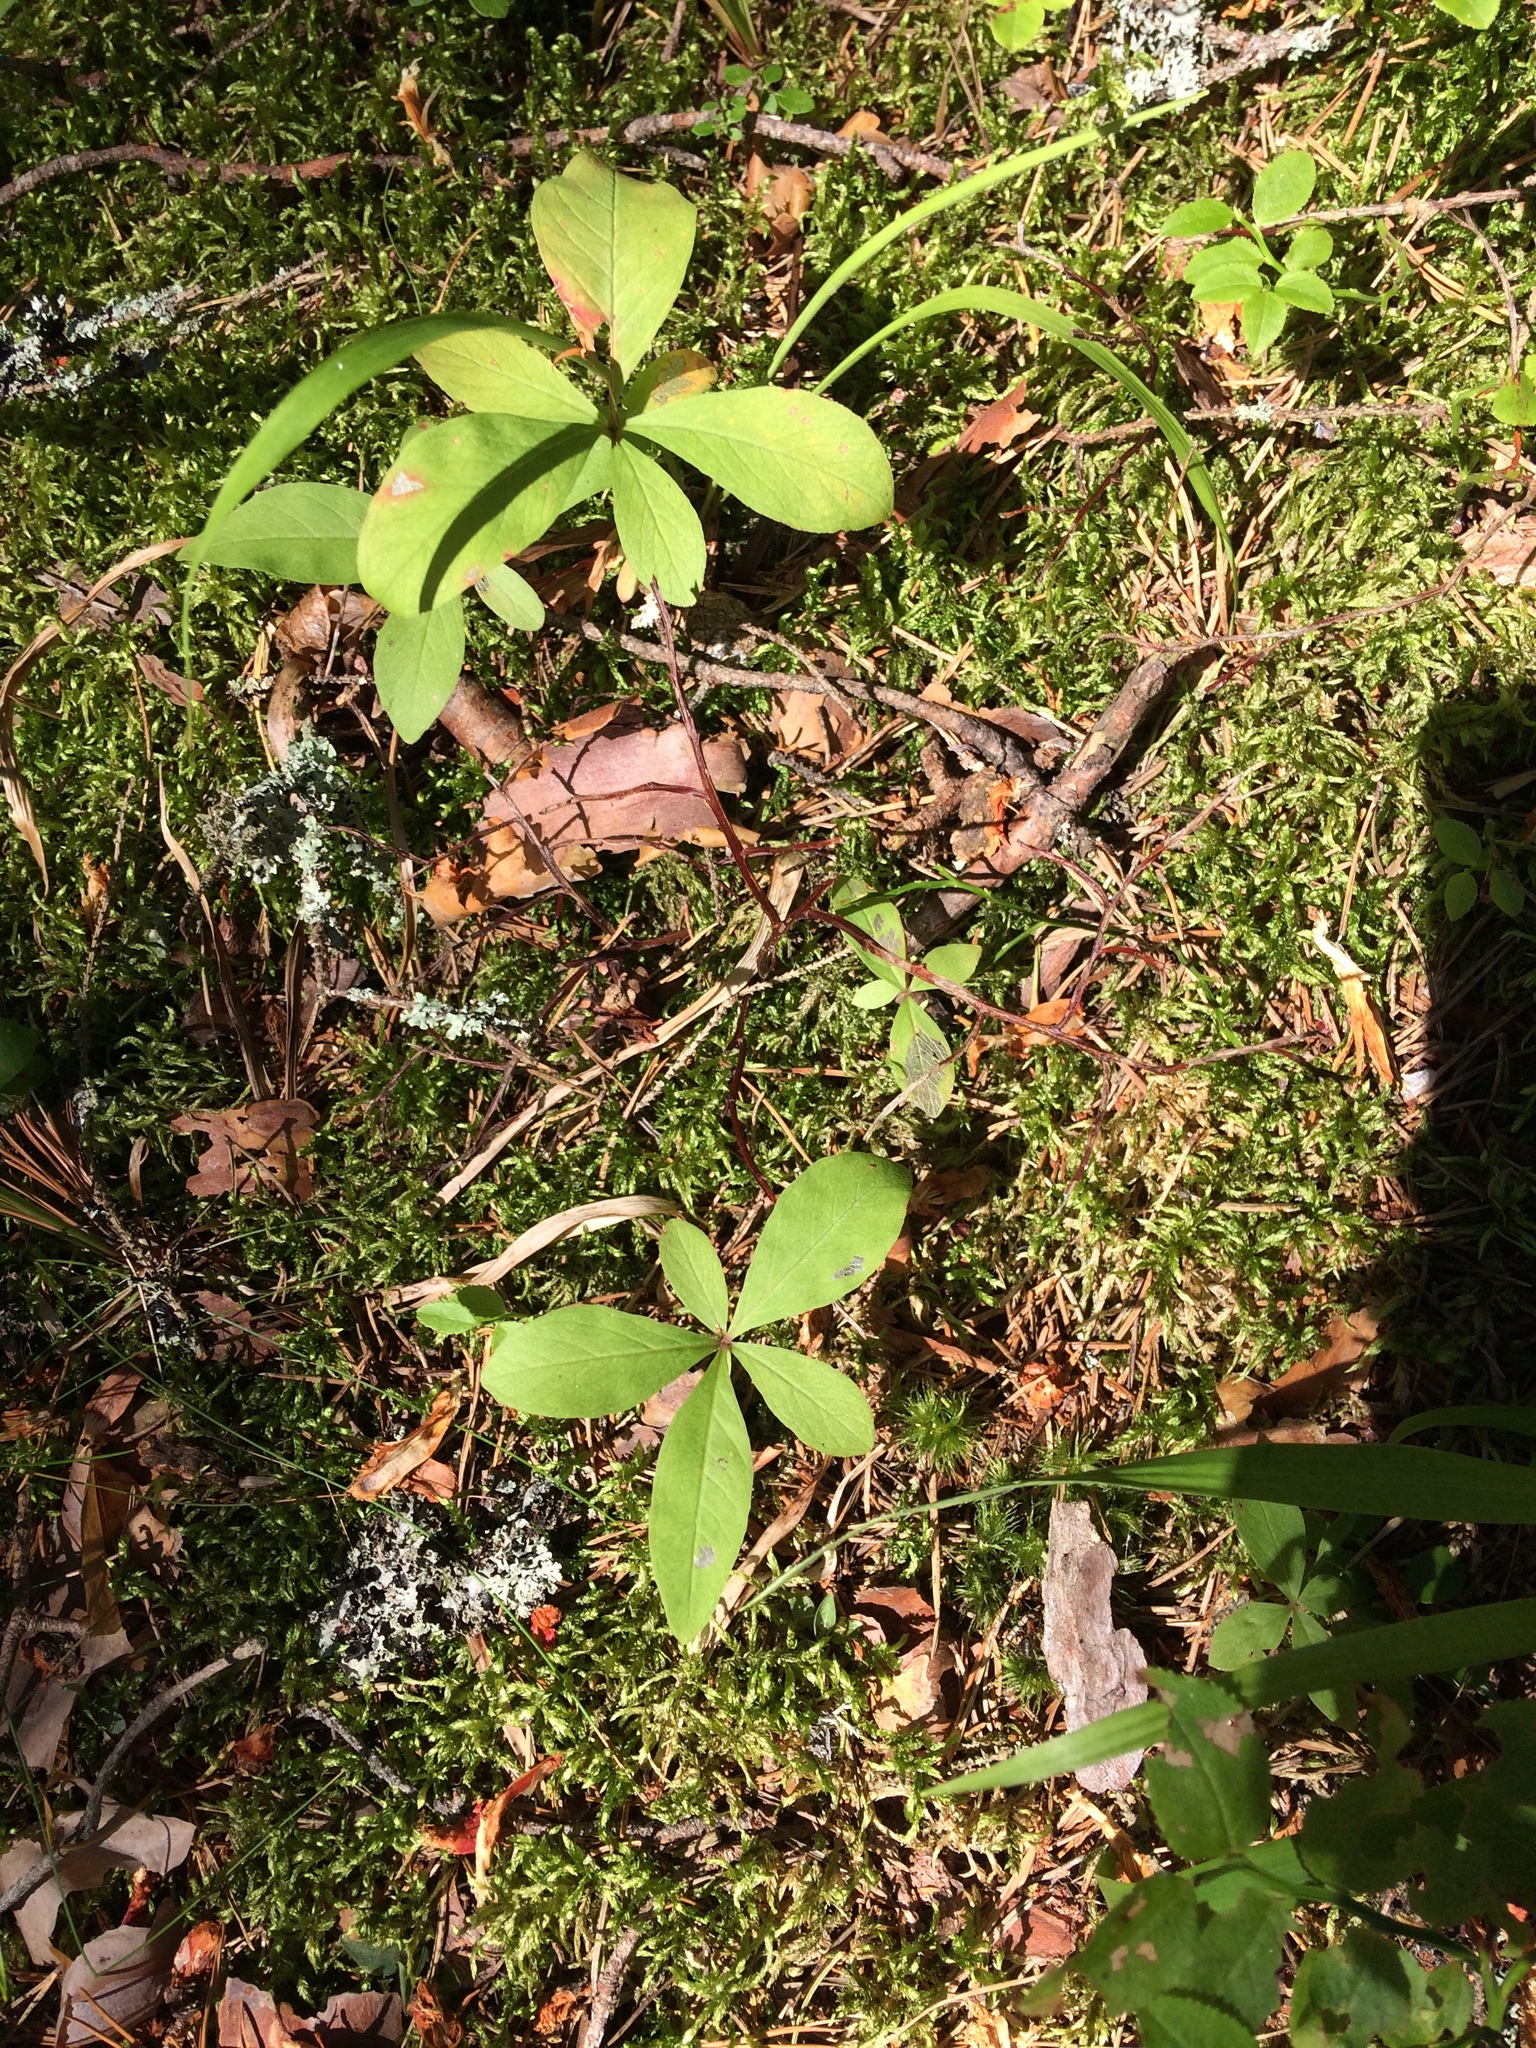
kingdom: Plantae
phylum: Tracheophyta
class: Magnoliopsida
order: Ericales
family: Primulaceae
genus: Lysimachia
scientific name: Lysimachia europaea
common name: Arctic starflower
